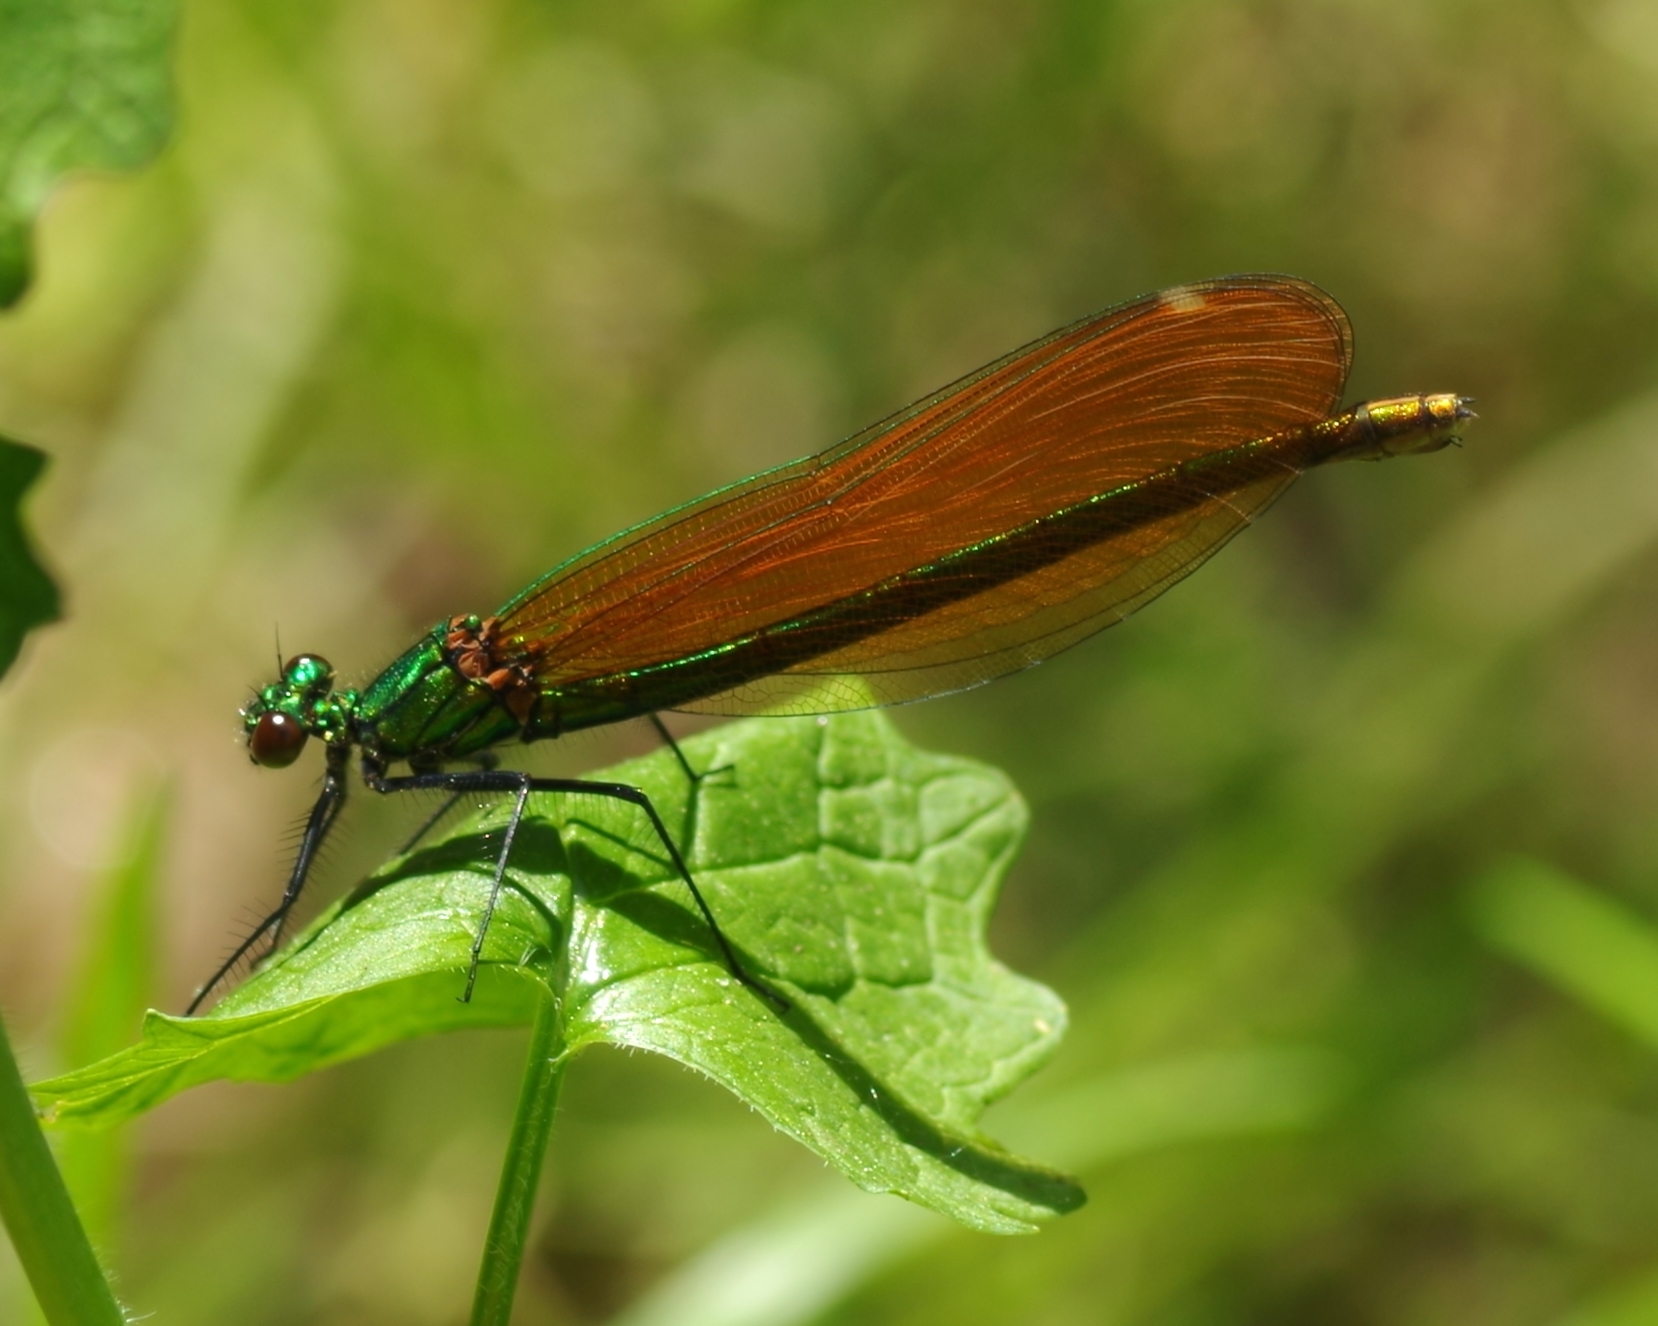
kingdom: Animalia
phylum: Arthropoda
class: Insecta
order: Odonata
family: Calopterygidae
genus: Calopteryx
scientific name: Calopteryx virgo
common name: Beautiful demoiselle
